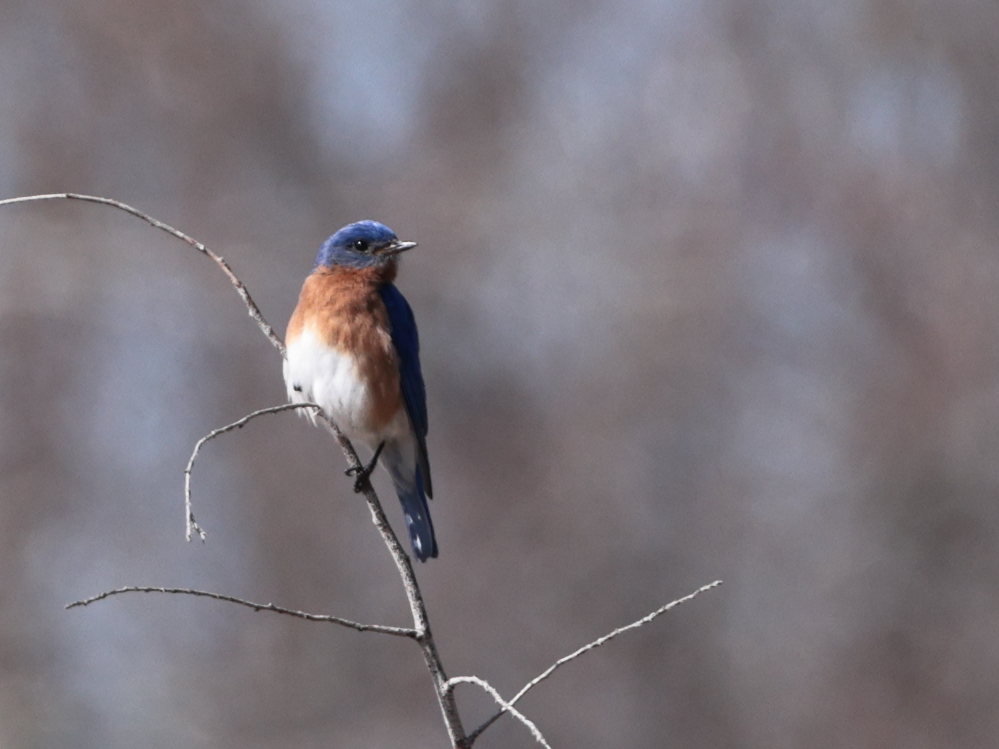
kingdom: Animalia
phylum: Chordata
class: Aves
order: Passeriformes
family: Turdidae
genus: Sialia
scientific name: Sialia sialis
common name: Eastern bluebird
